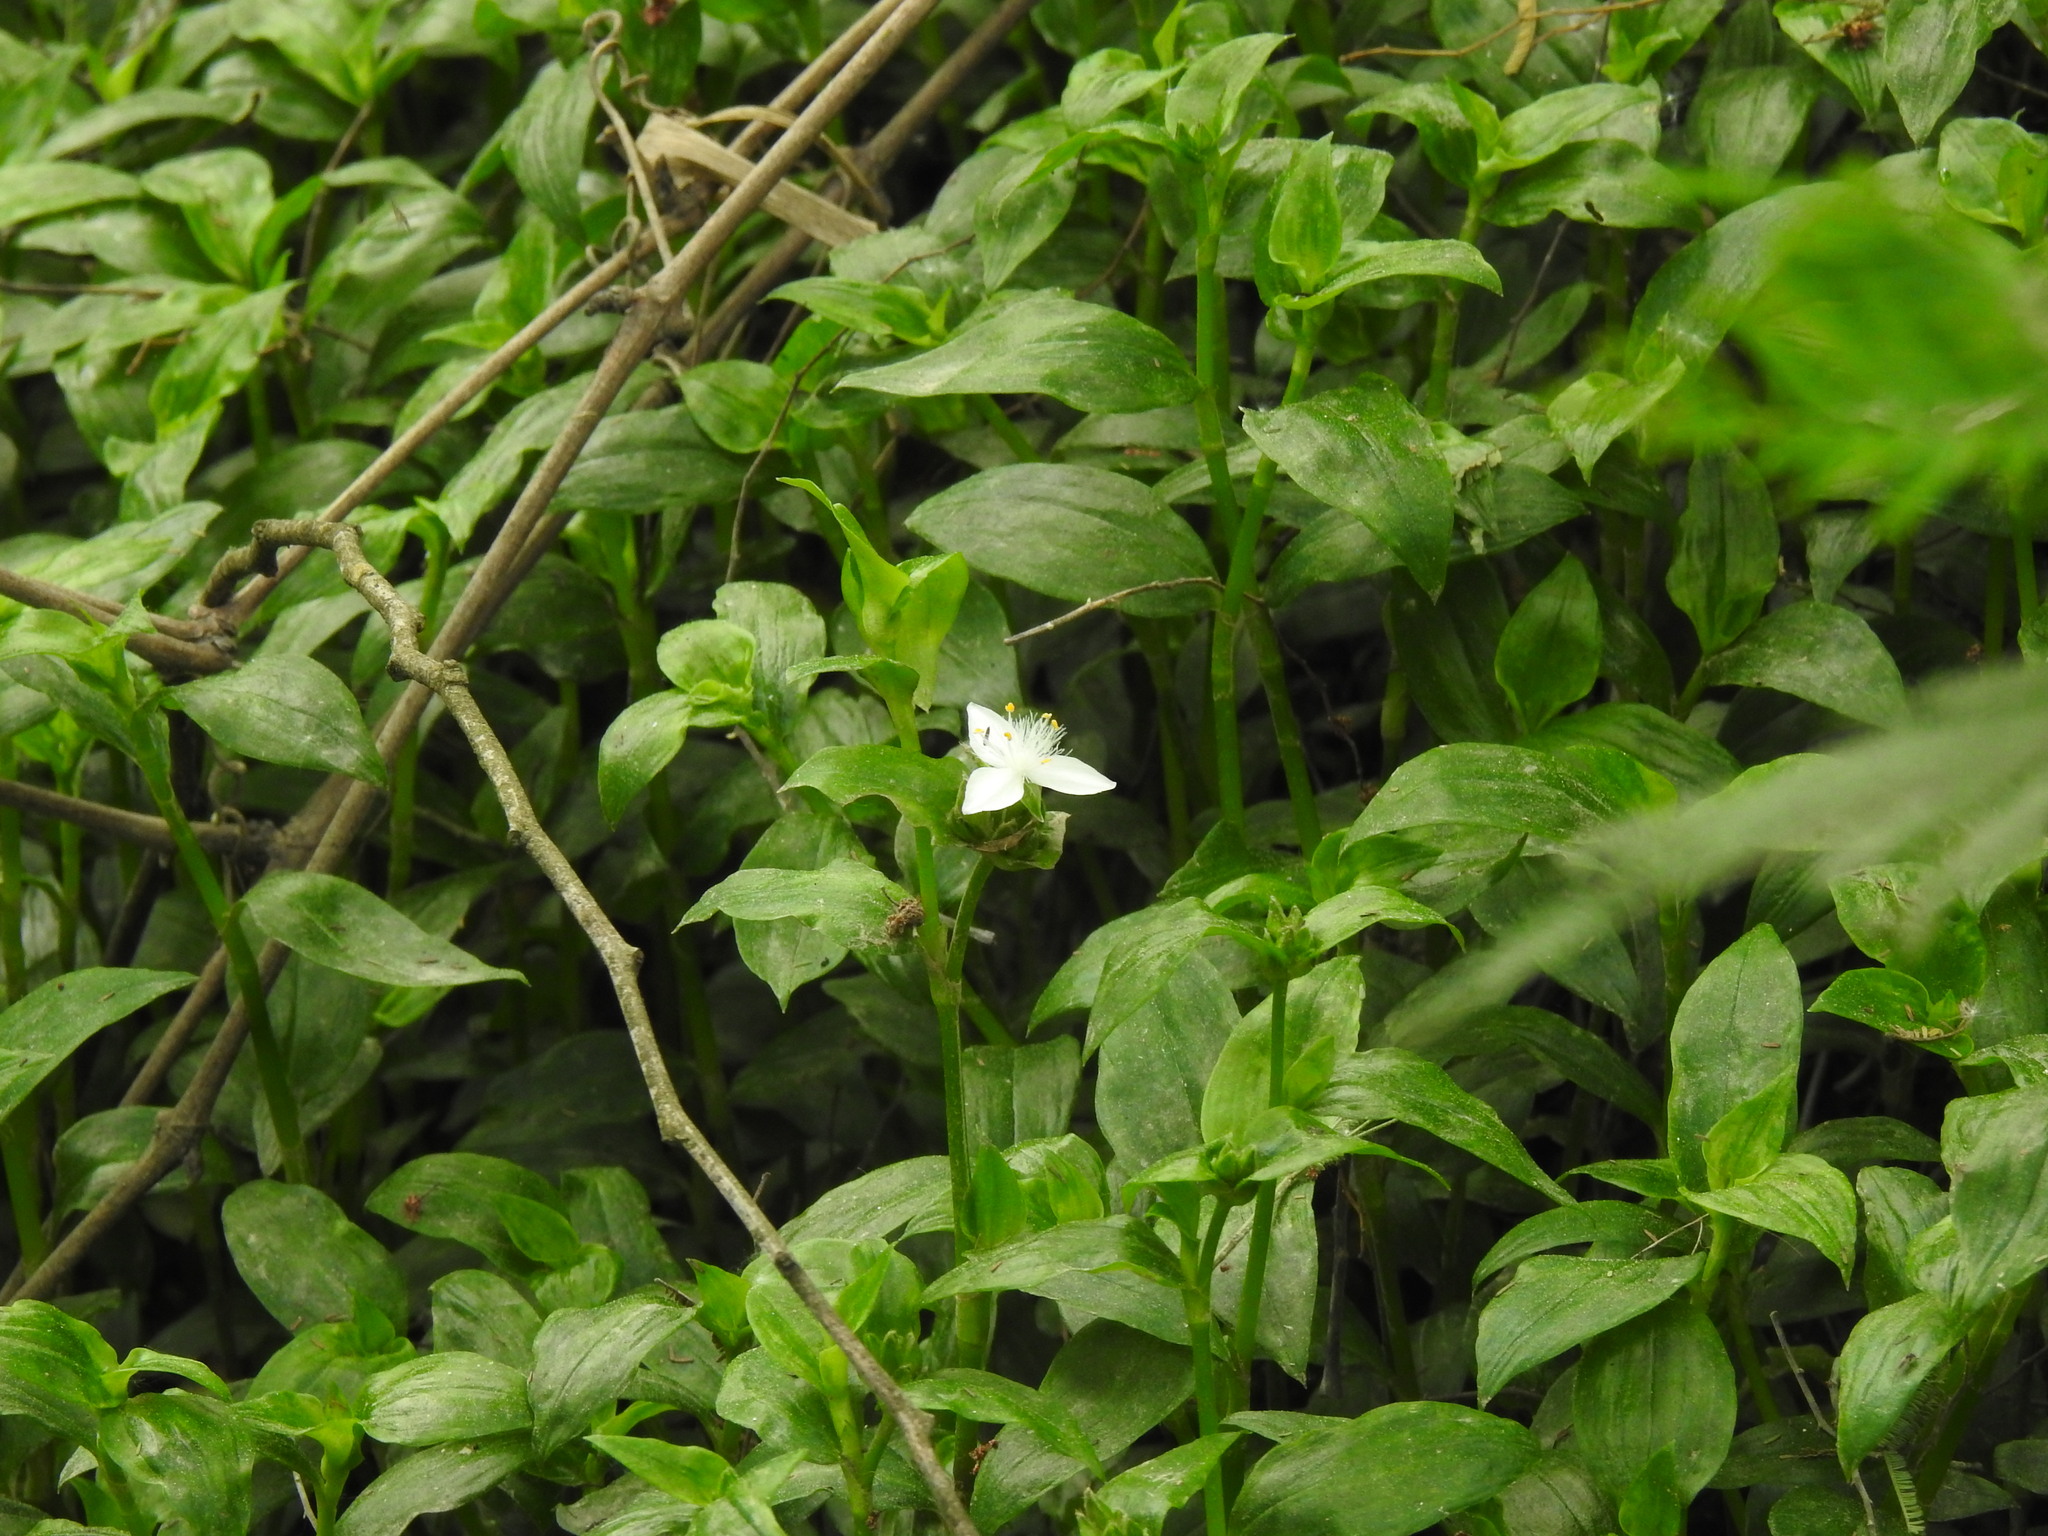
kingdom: Plantae
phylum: Tracheophyta
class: Liliopsida
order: Commelinales
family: Commelinaceae
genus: Tradescantia
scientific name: Tradescantia fluminensis
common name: Wandering-jew
